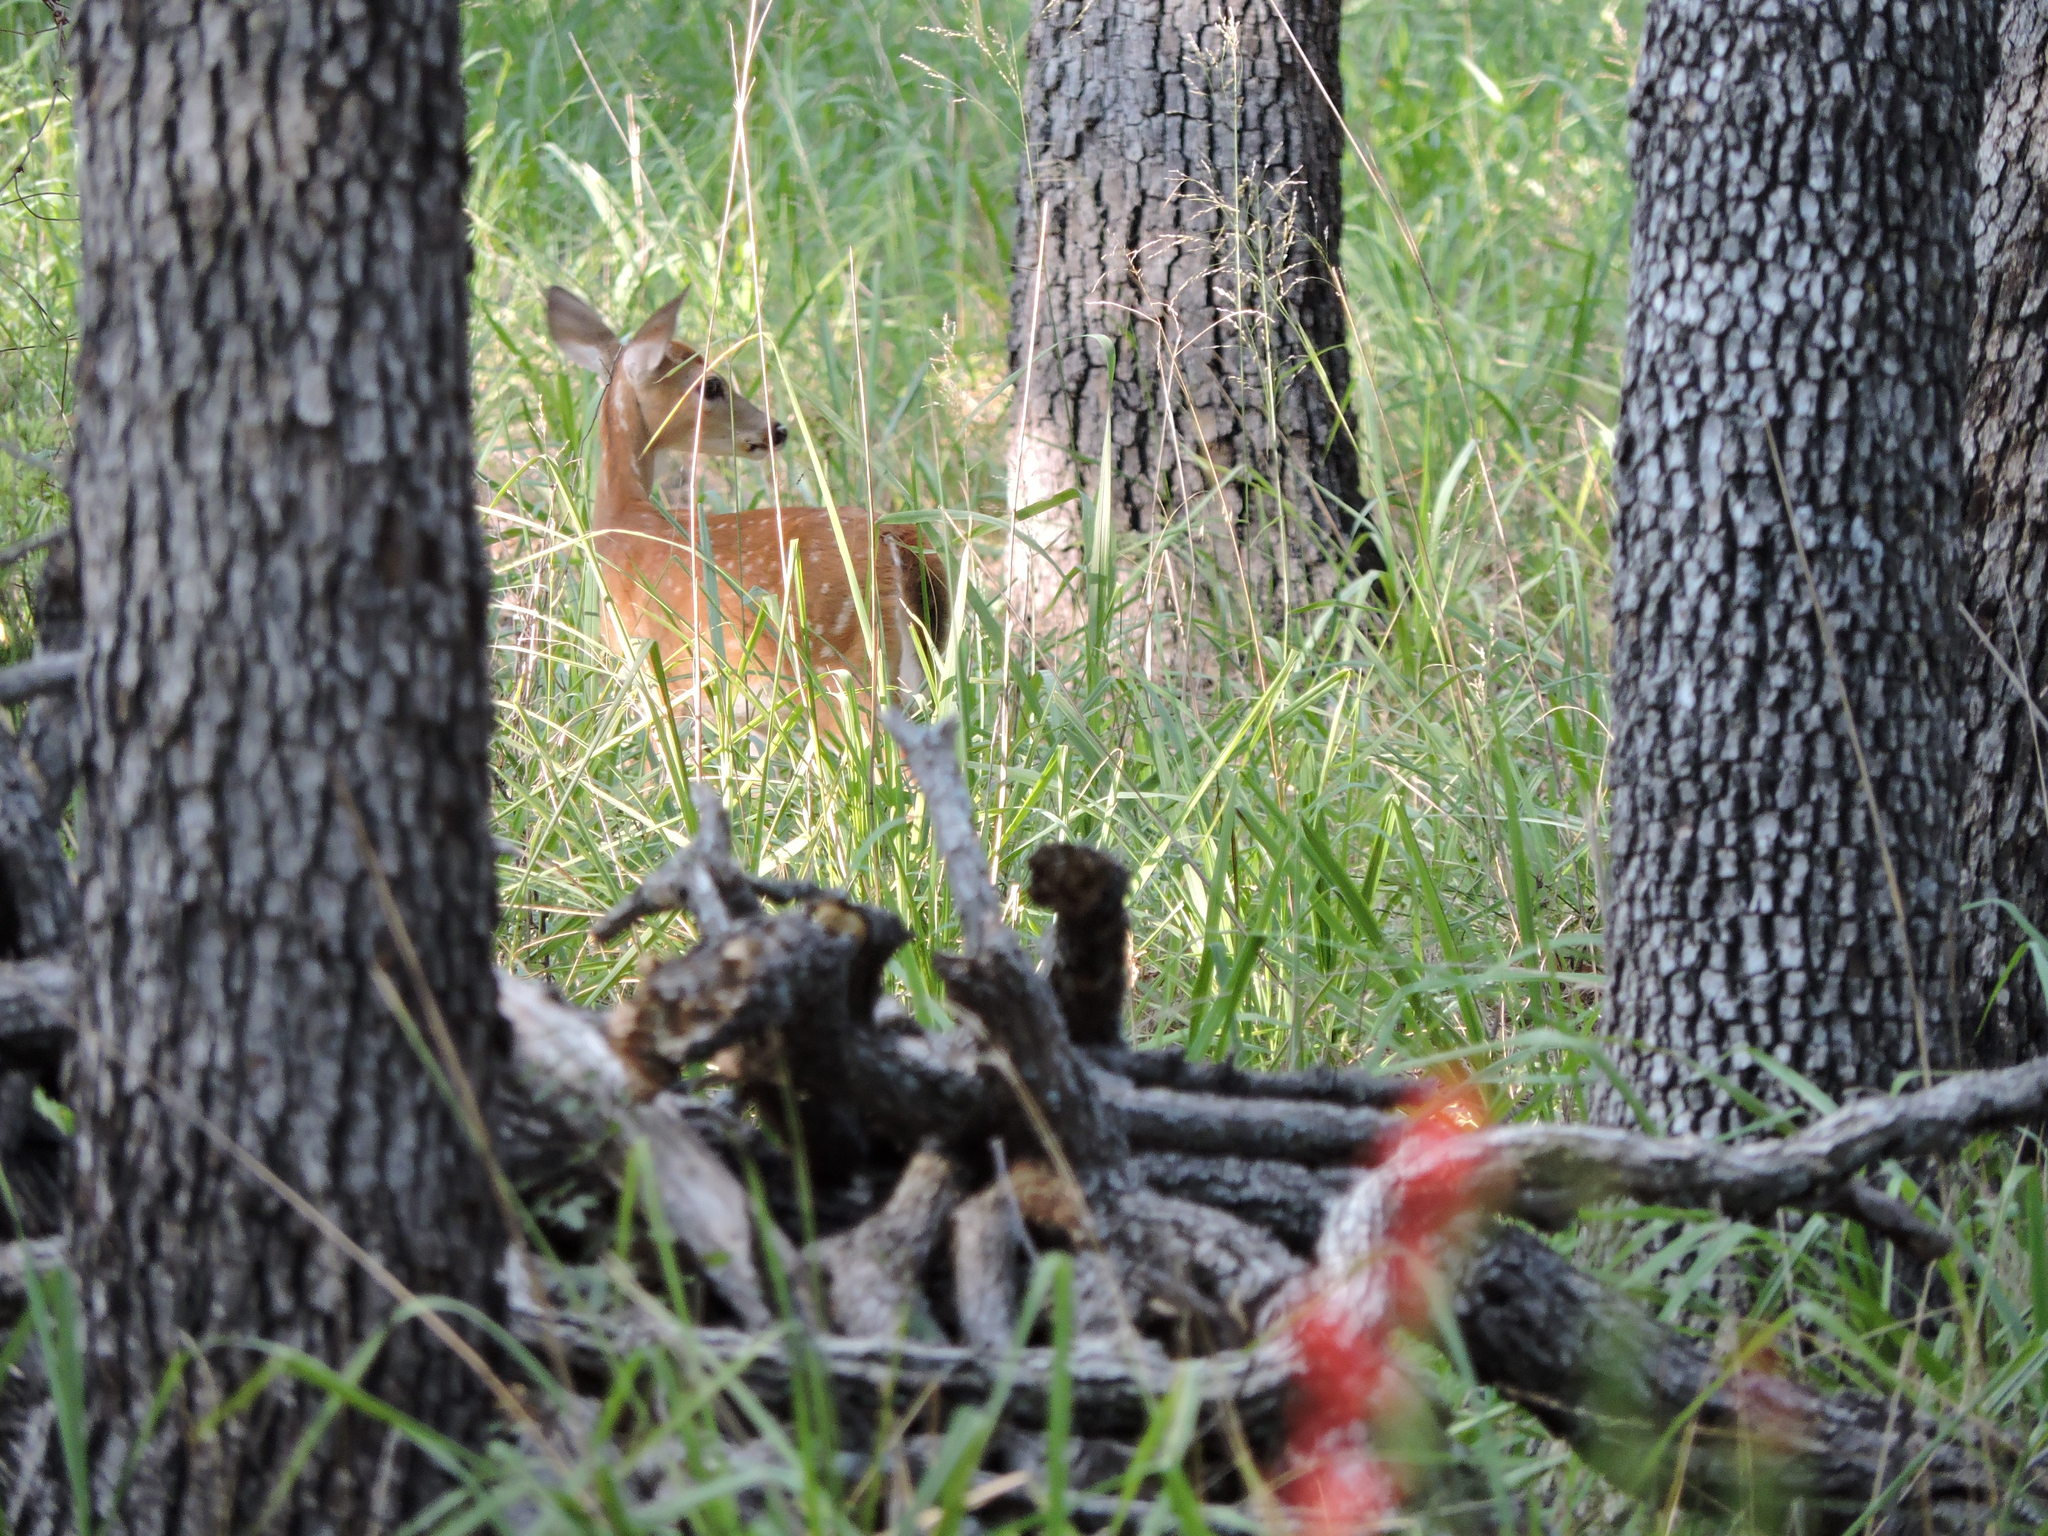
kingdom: Animalia
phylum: Chordata
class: Mammalia
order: Artiodactyla
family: Cervidae
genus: Odocoileus
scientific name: Odocoileus virginianus
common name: White-tailed deer
